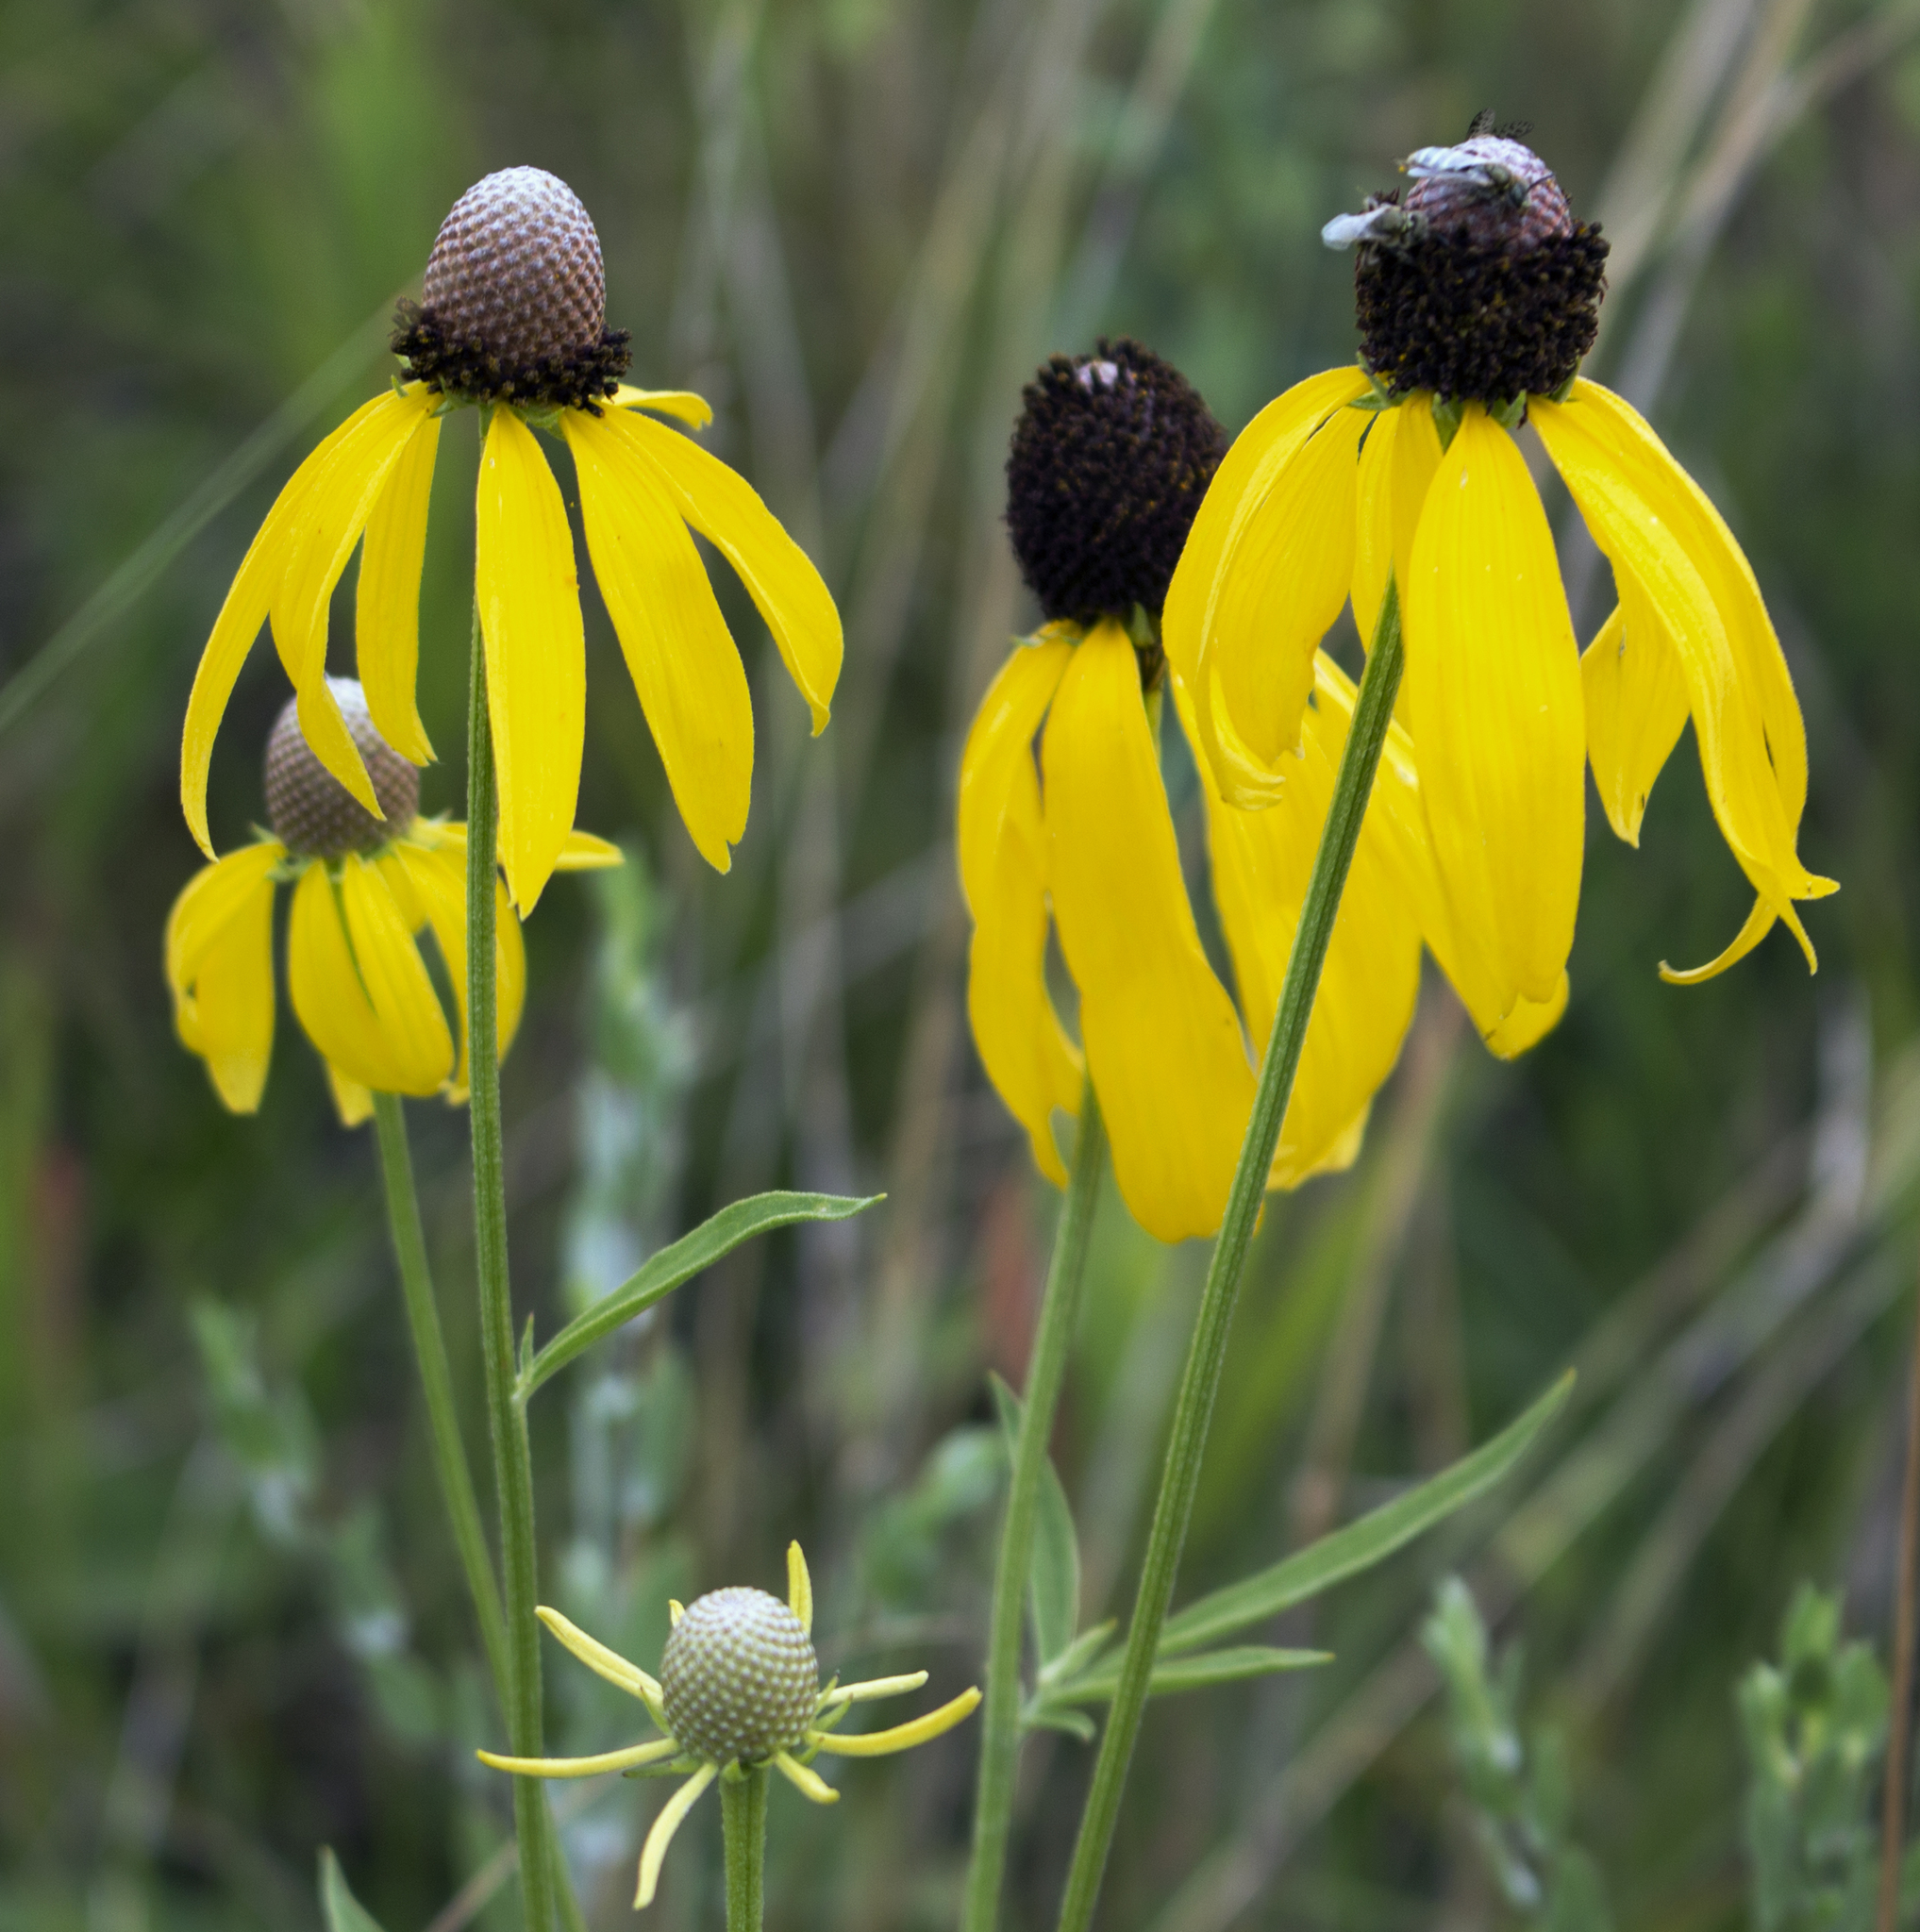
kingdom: Plantae
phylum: Tracheophyta
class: Magnoliopsida
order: Asterales
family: Asteraceae
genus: Ratibida
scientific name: Ratibida pinnata
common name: Drooping prairie-coneflower
